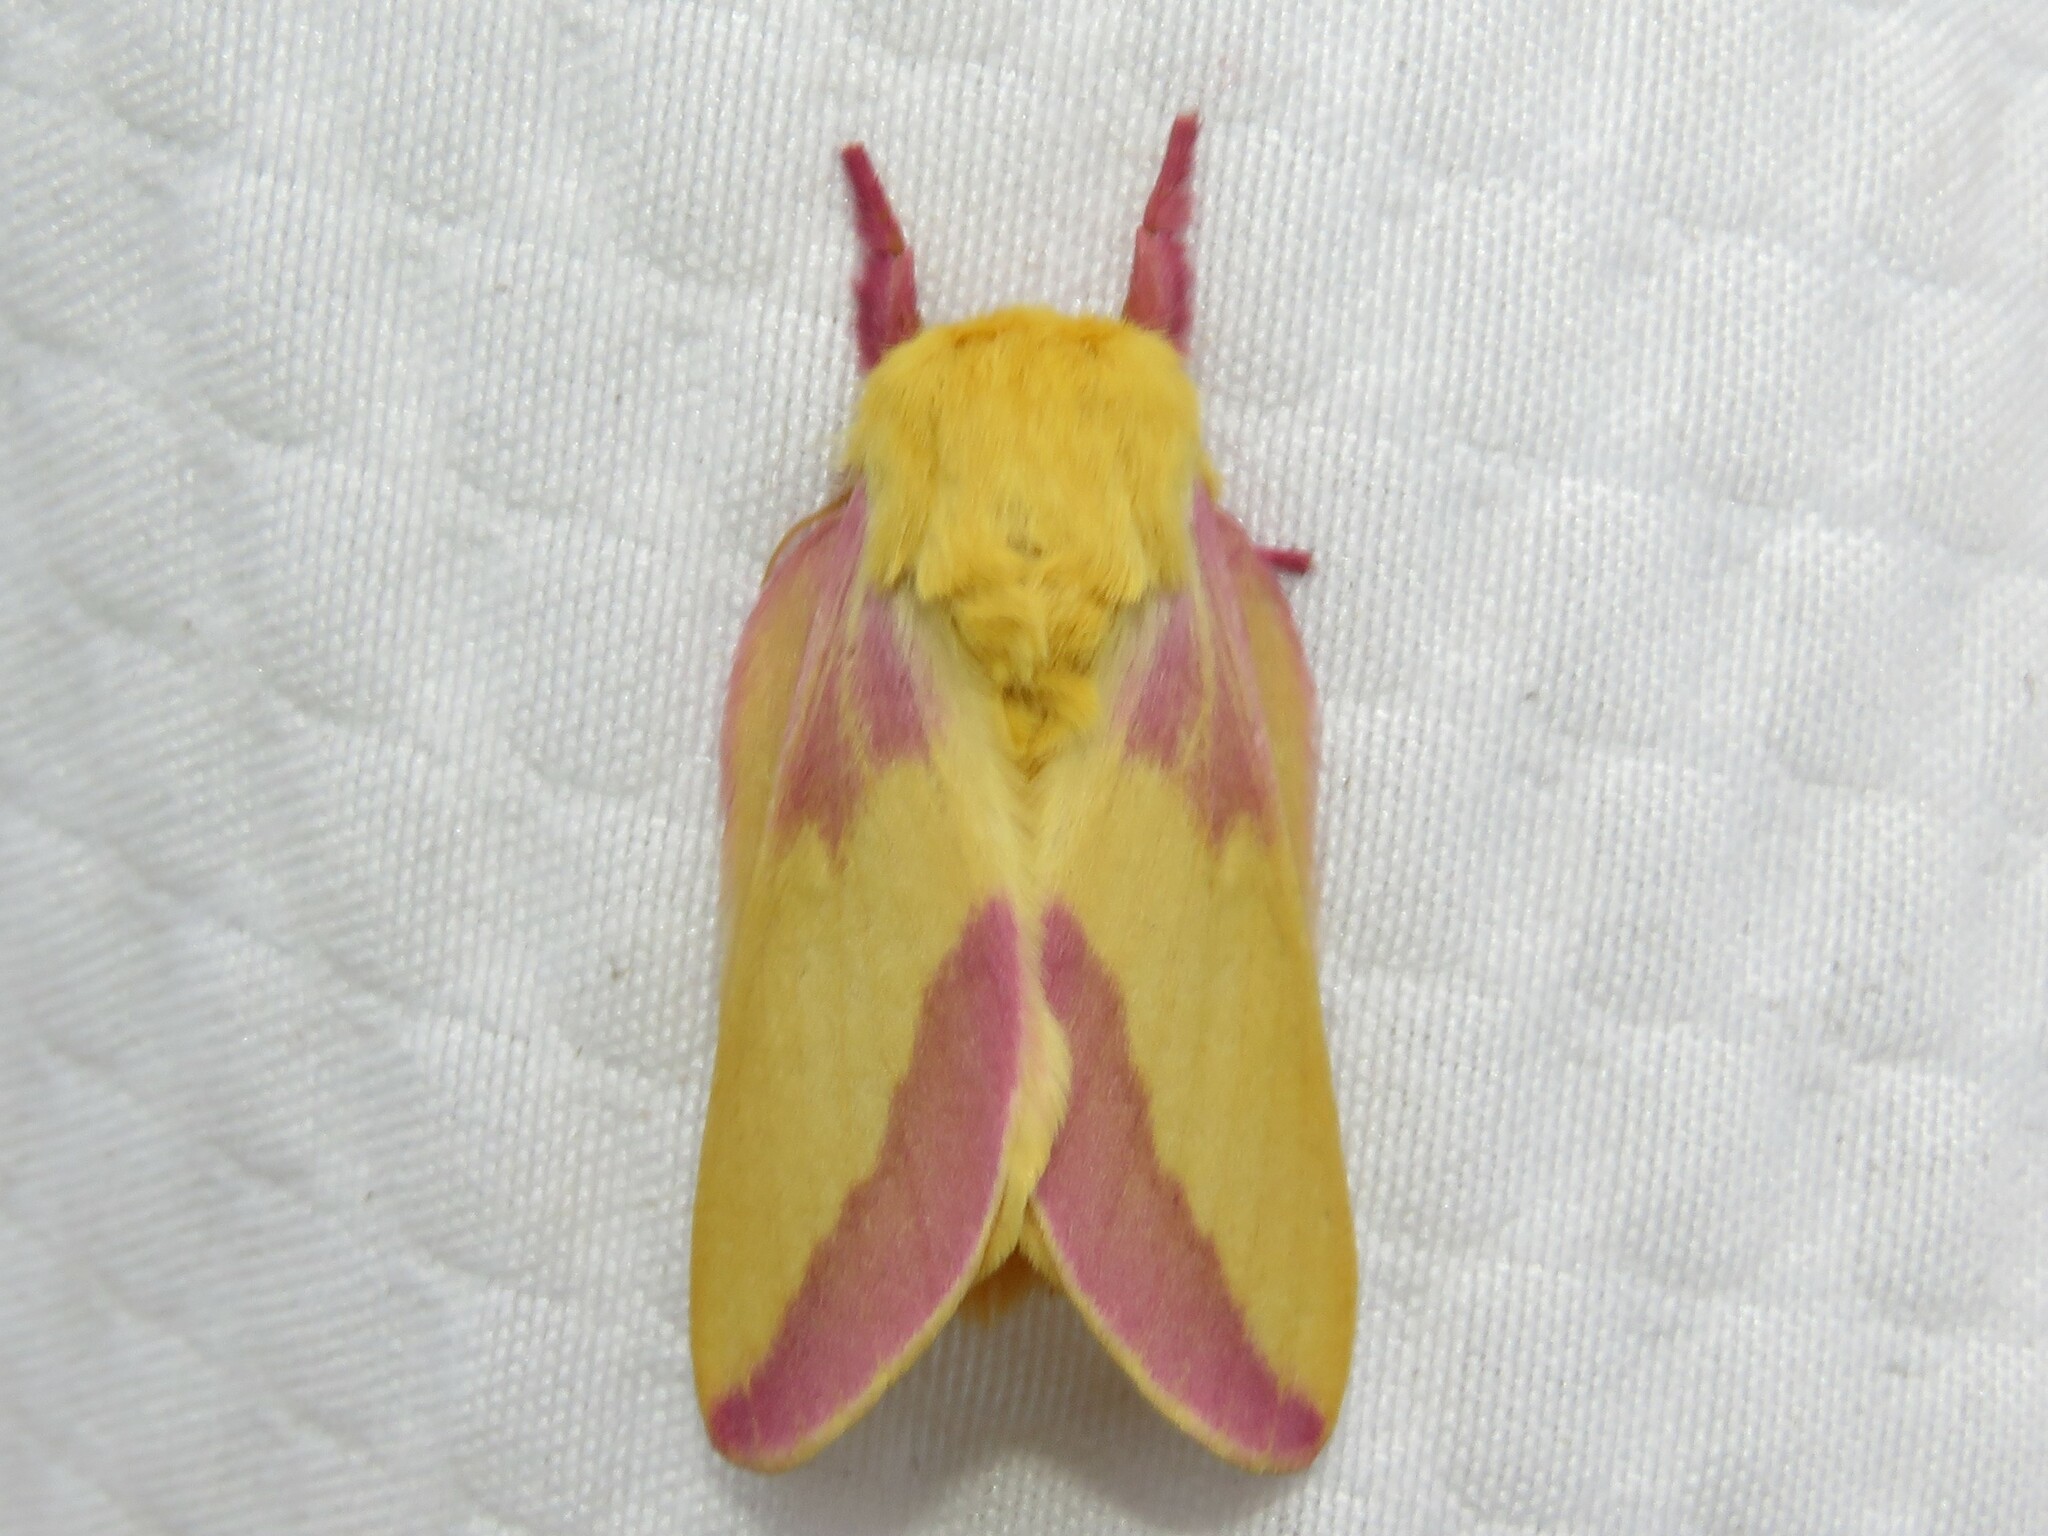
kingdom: Animalia
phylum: Arthropoda
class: Insecta
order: Lepidoptera
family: Saturniidae
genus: Dryocampa
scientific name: Dryocampa rubicunda
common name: Rosy maple moth
